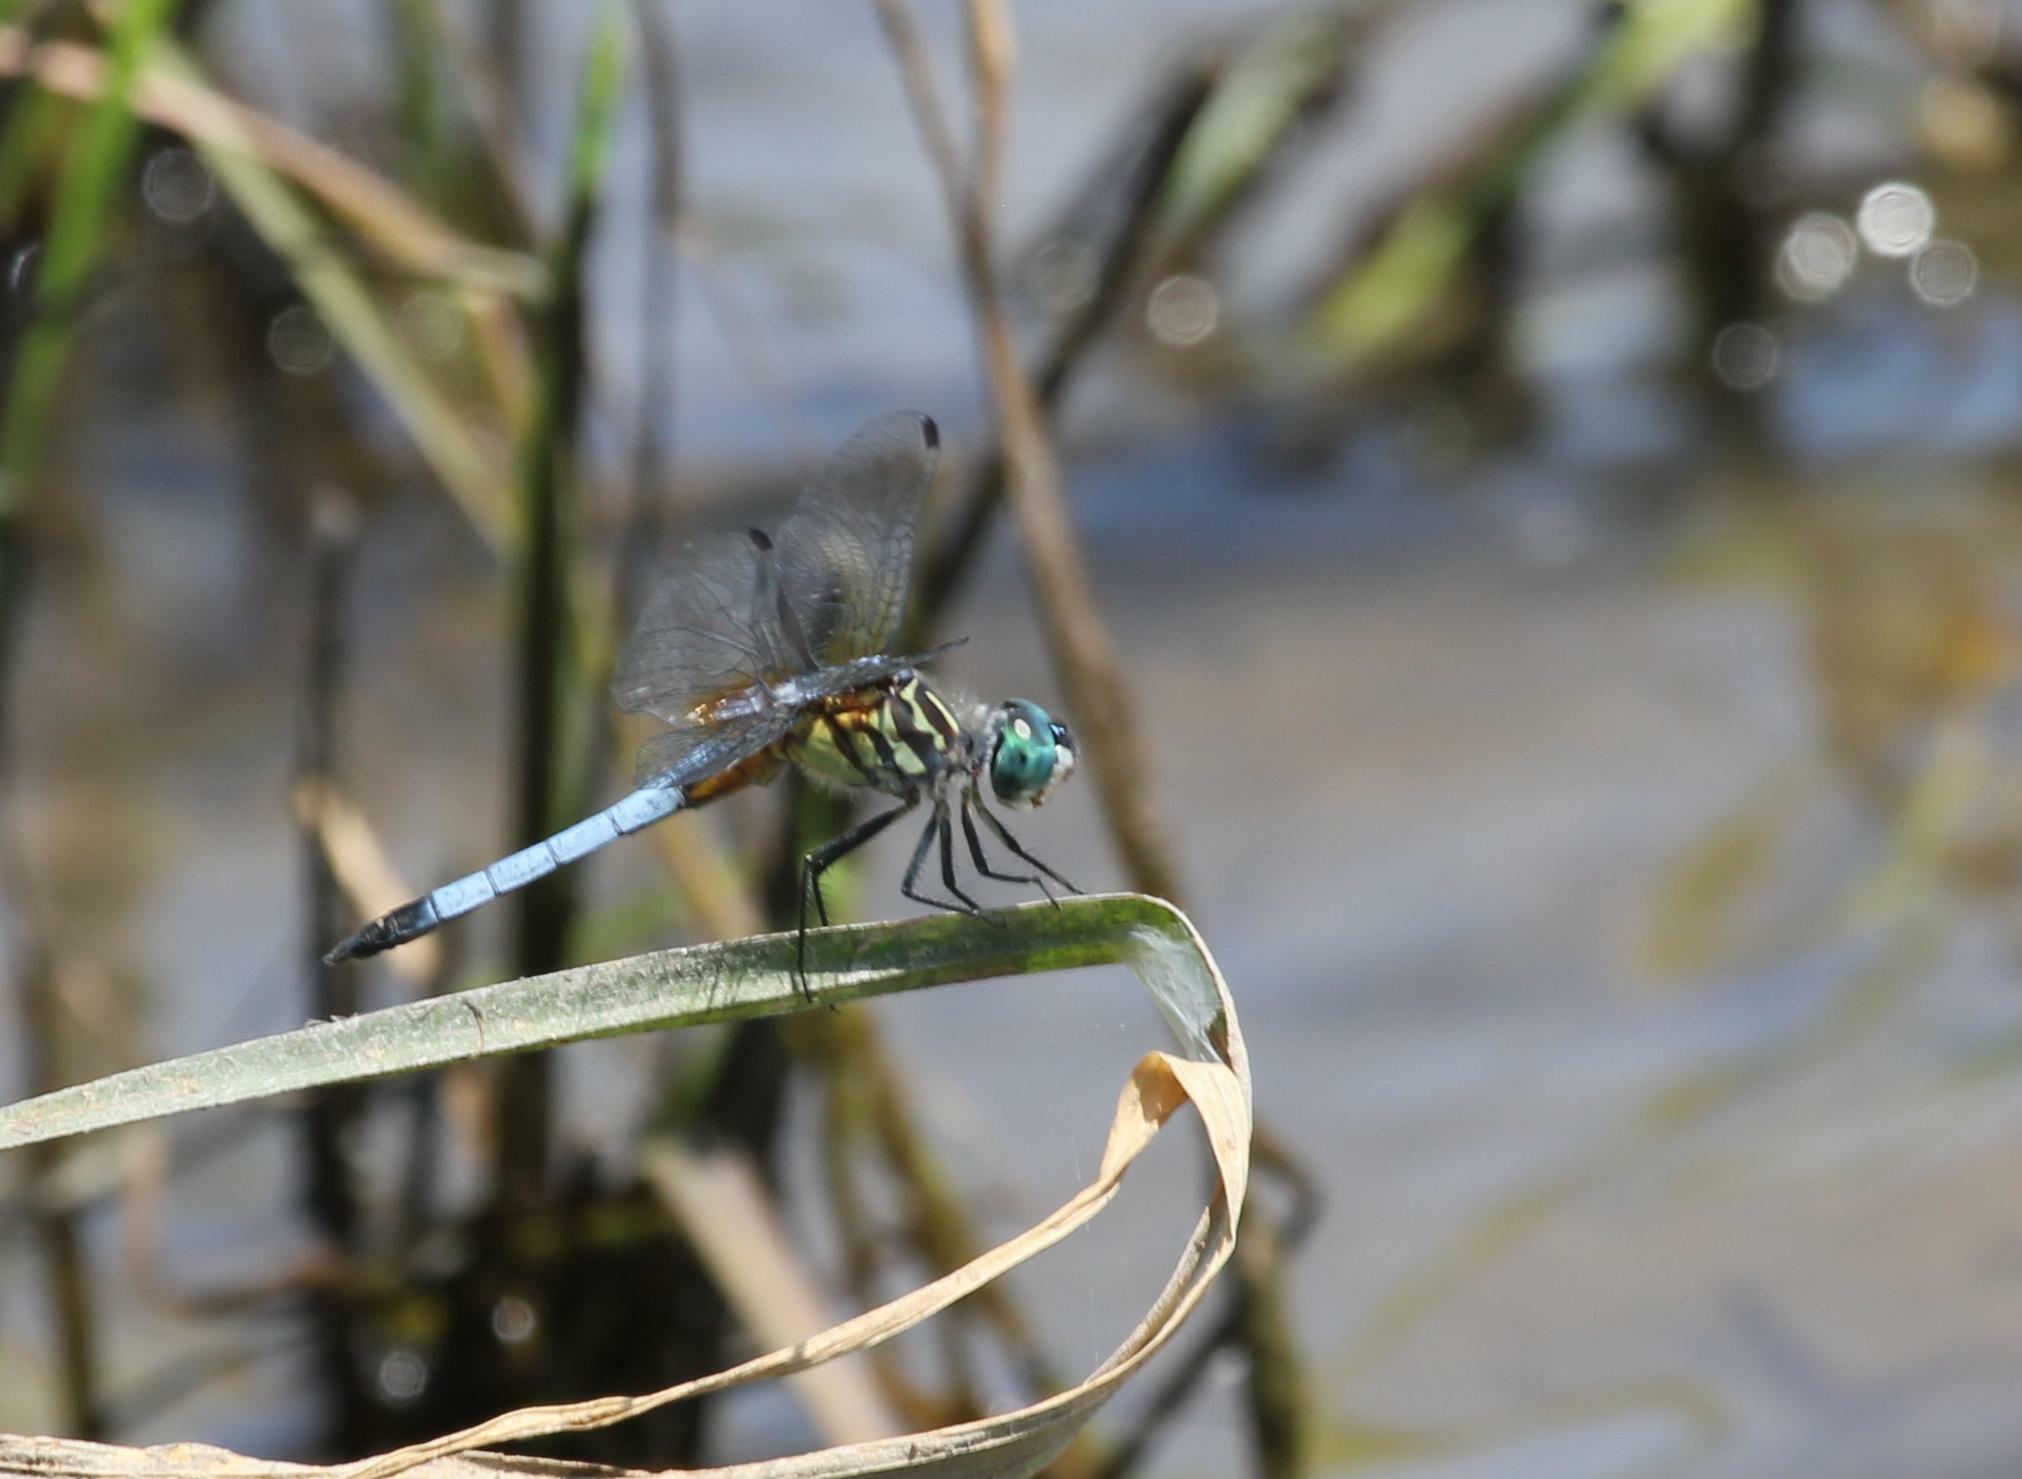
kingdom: Animalia
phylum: Arthropoda
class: Insecta
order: Odonata
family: Libellulidae
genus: Pachydiplax
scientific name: Pachydiplax longipennis
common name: Blue dasher
